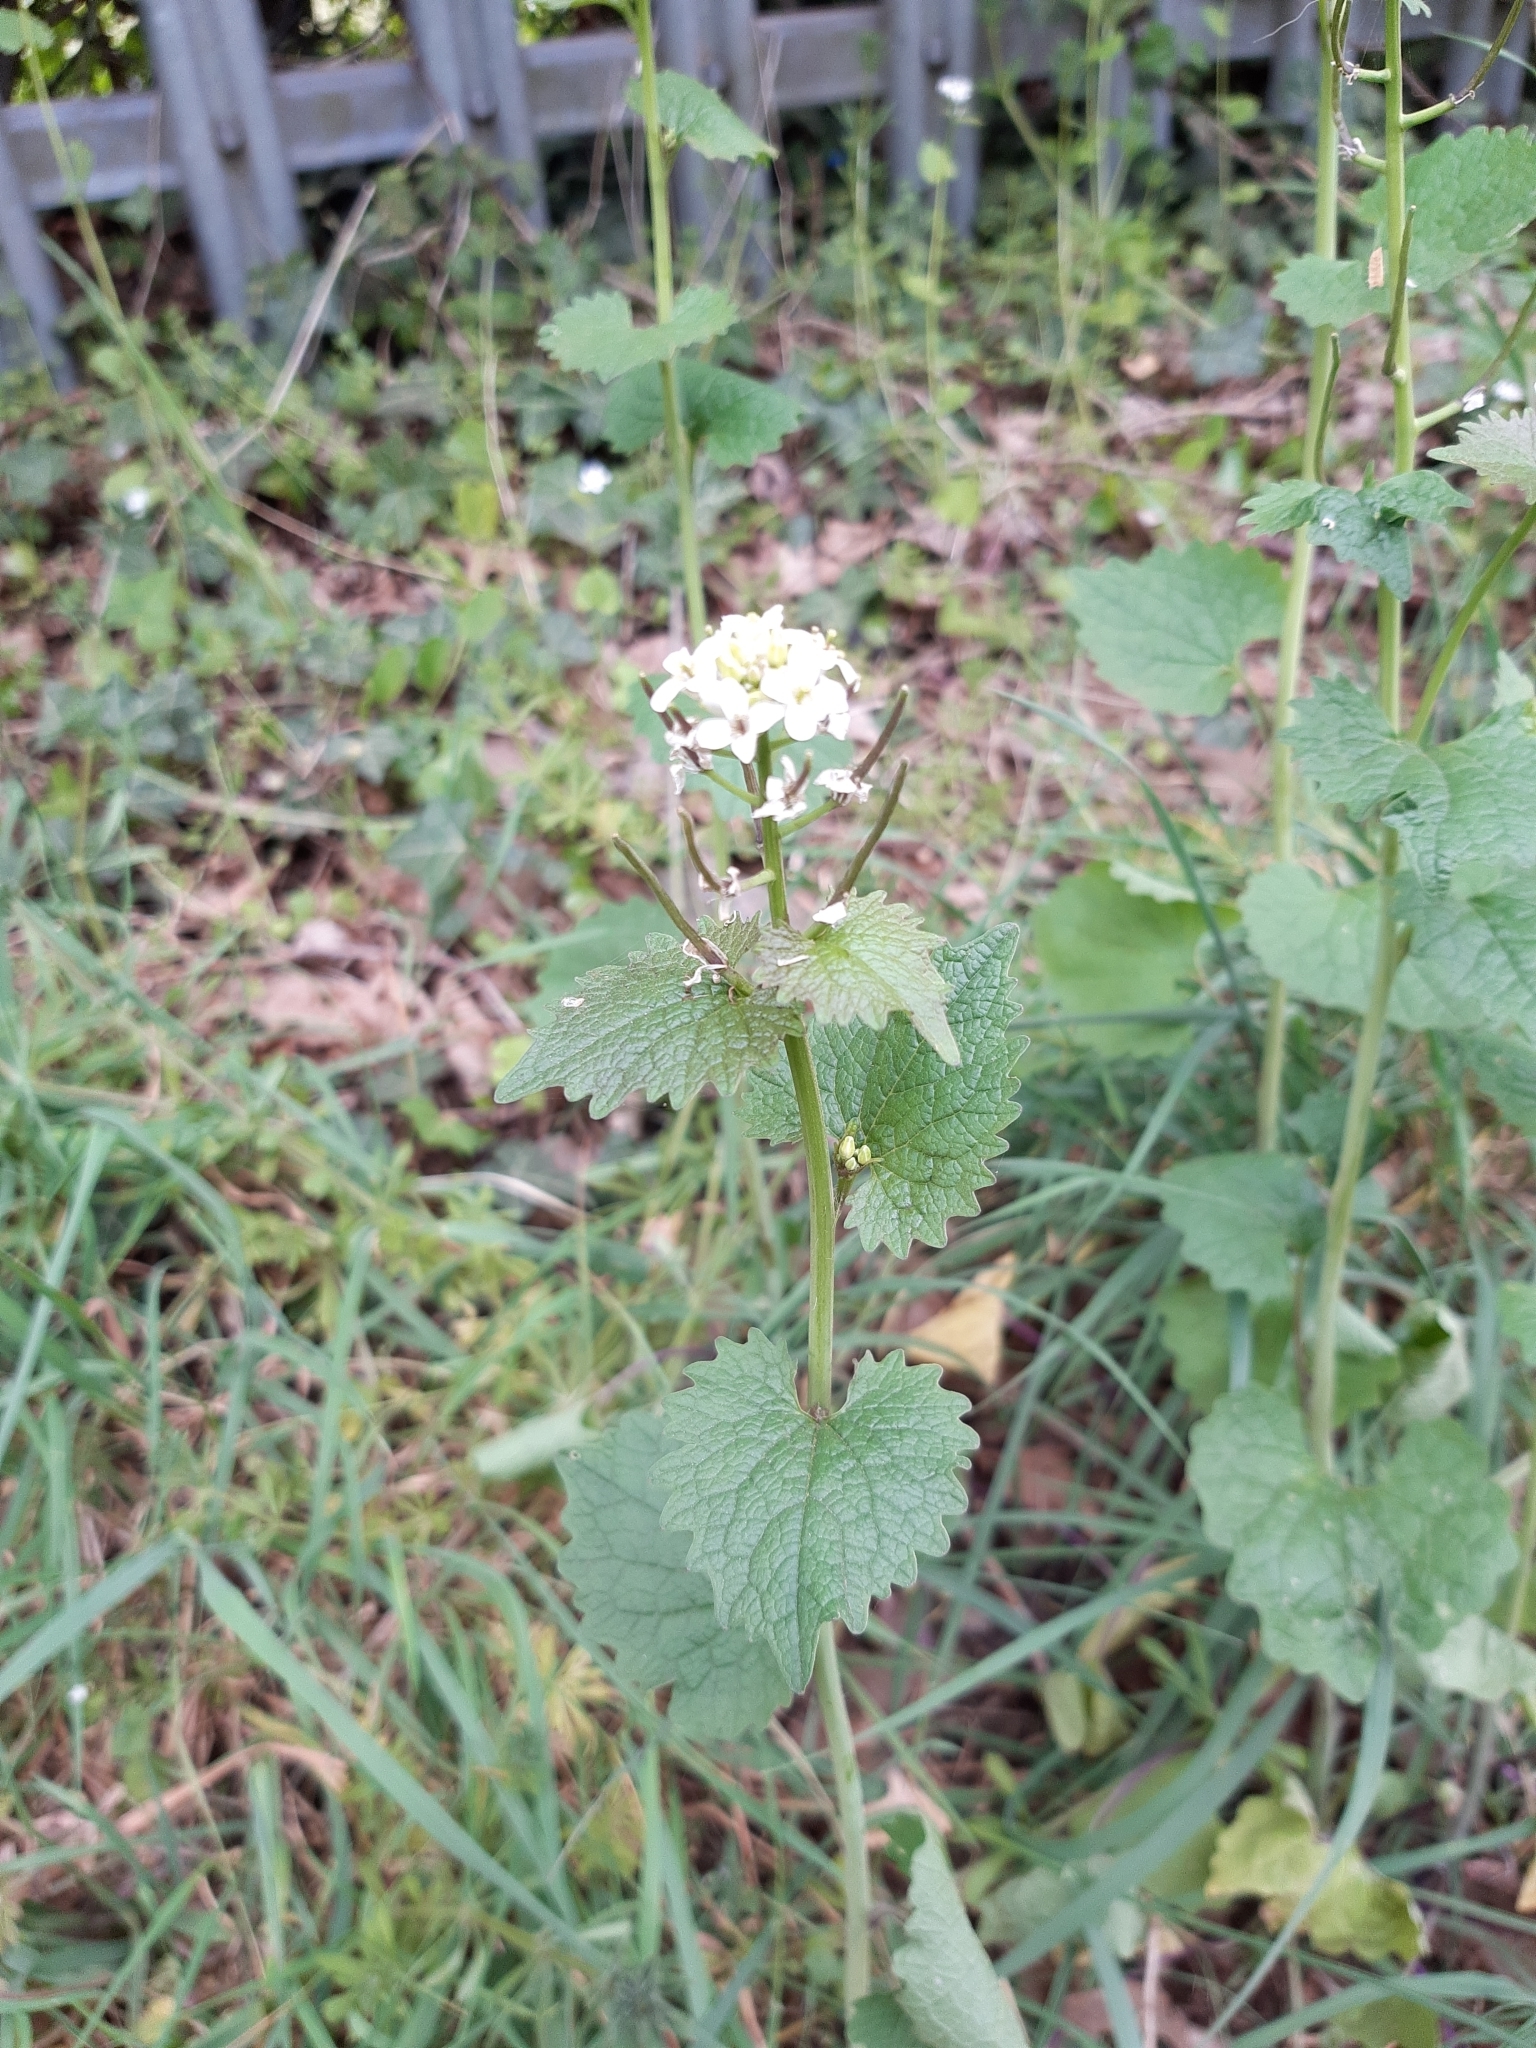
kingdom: Plantae
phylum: Tracheophyta
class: Magnoliopsida
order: Brassicales
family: Brassicaceae
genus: Alliaria
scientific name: Alliaria petiolata
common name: Garlic mustard
